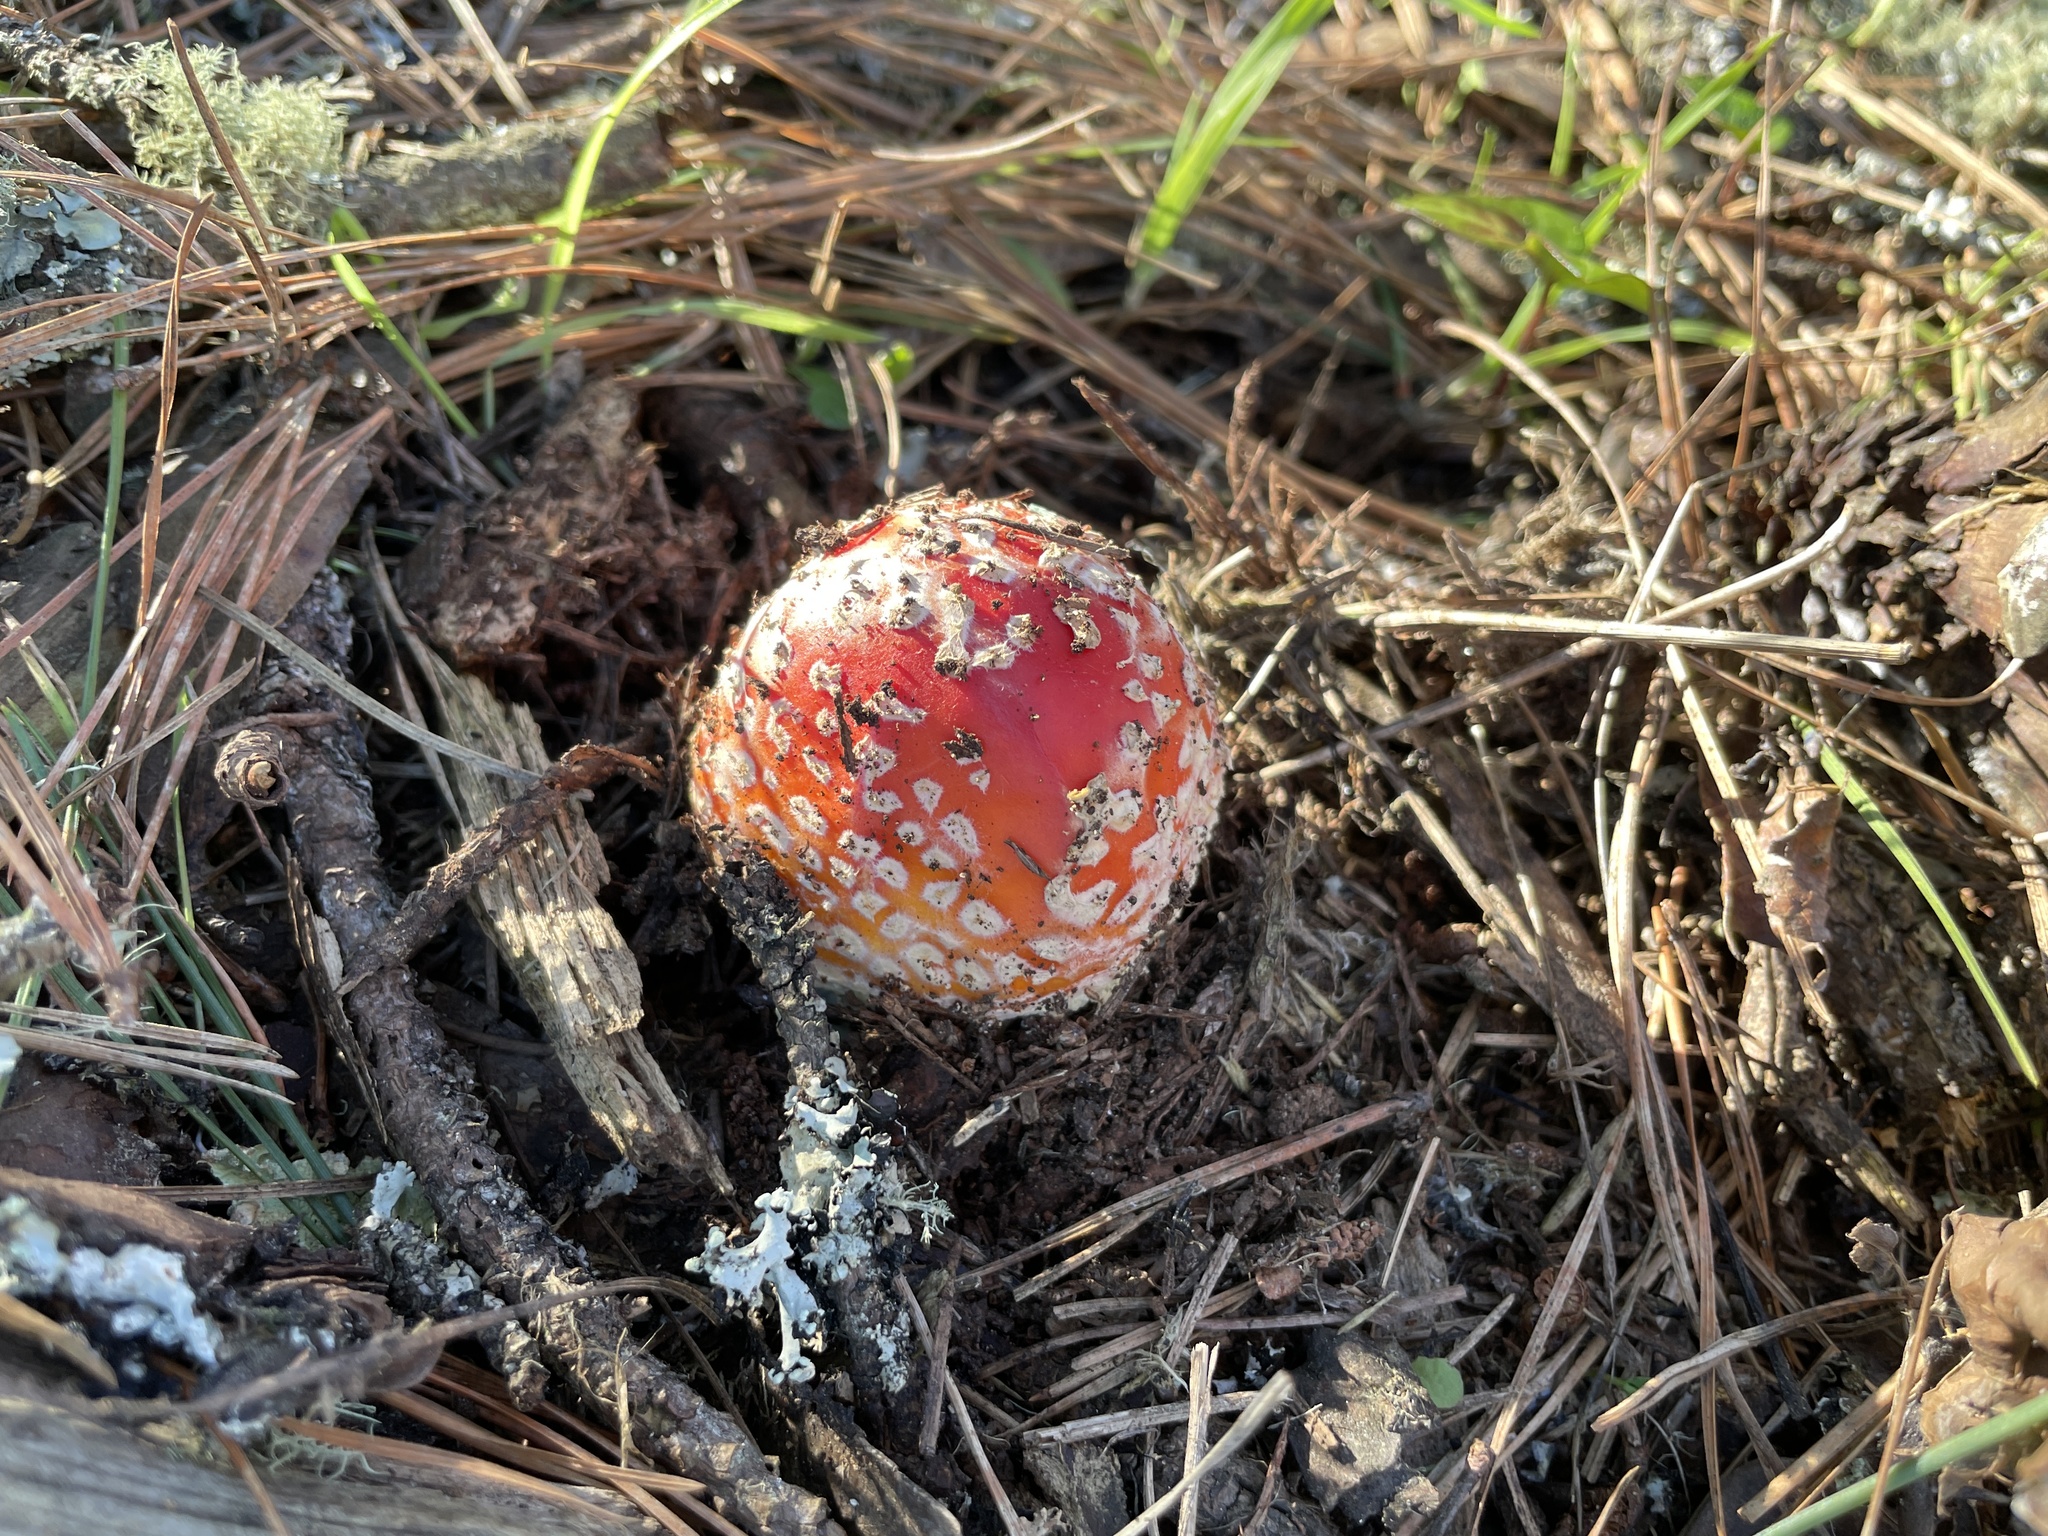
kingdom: Fungi
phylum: Basidiomycota
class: Agaricomycetes
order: Agaricales
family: Amanitaceae
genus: Amanita
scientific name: Amanita muscaria
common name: Fly agaric
